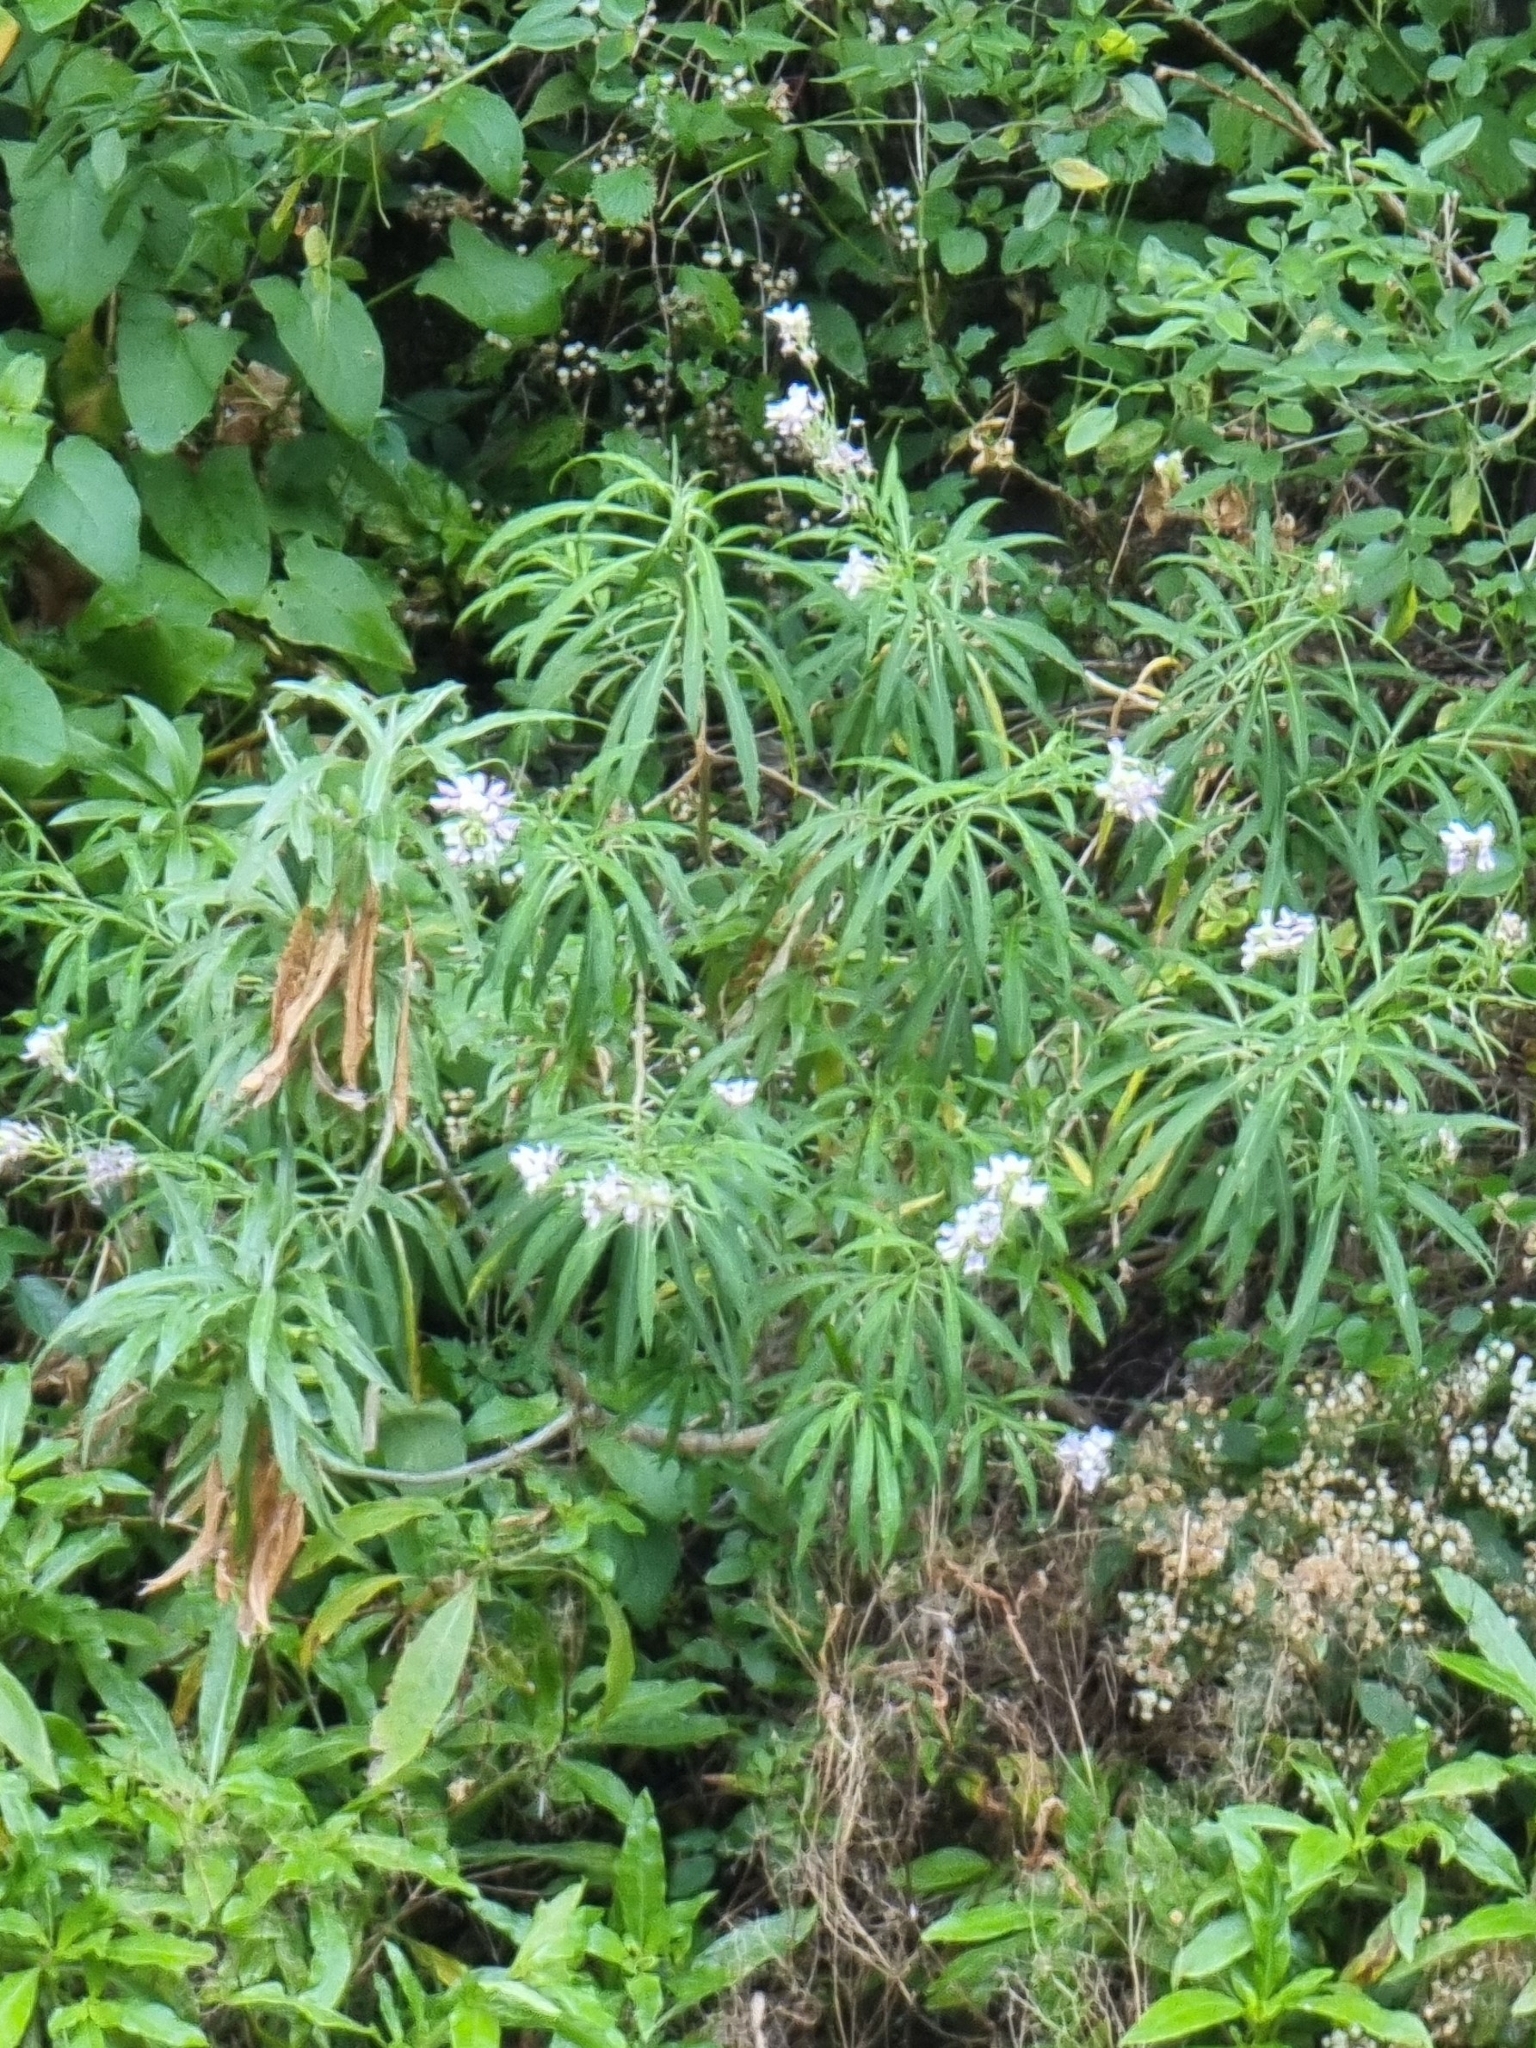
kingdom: Plantae
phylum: Tracheophyta
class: Magnoliopsida
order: Brassicales
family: Brassicaceae
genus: Erysimum
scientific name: Erysimum bicolor
